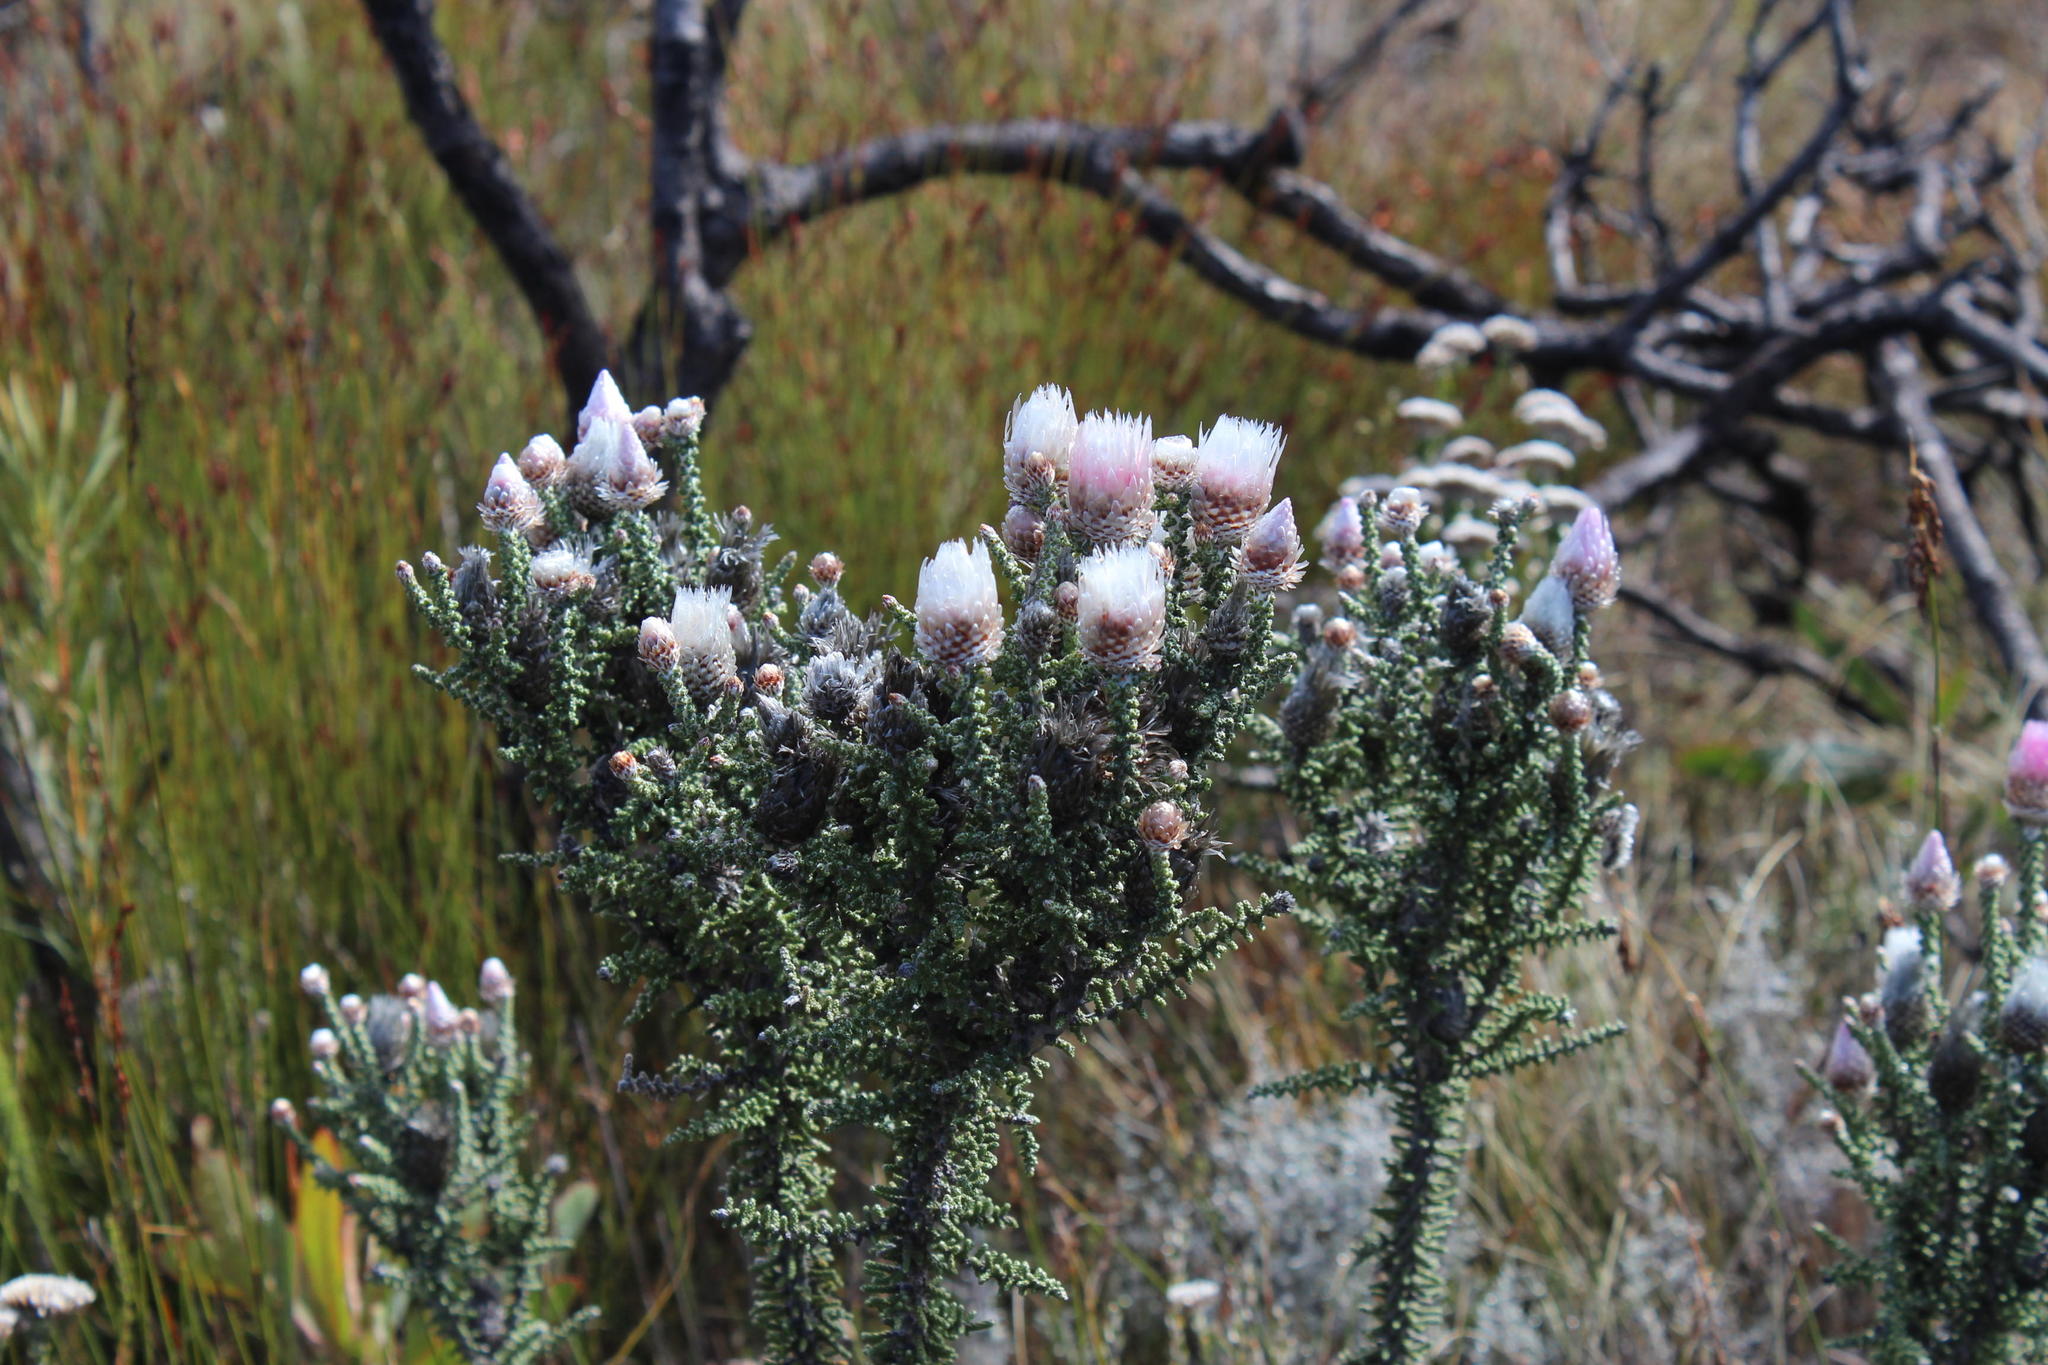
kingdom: Plantae
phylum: Tracheophyta
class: Magnoliopsida
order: Asterales
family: Asteraceae
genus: Phaenocoma
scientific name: Phaenocoma prolifera
